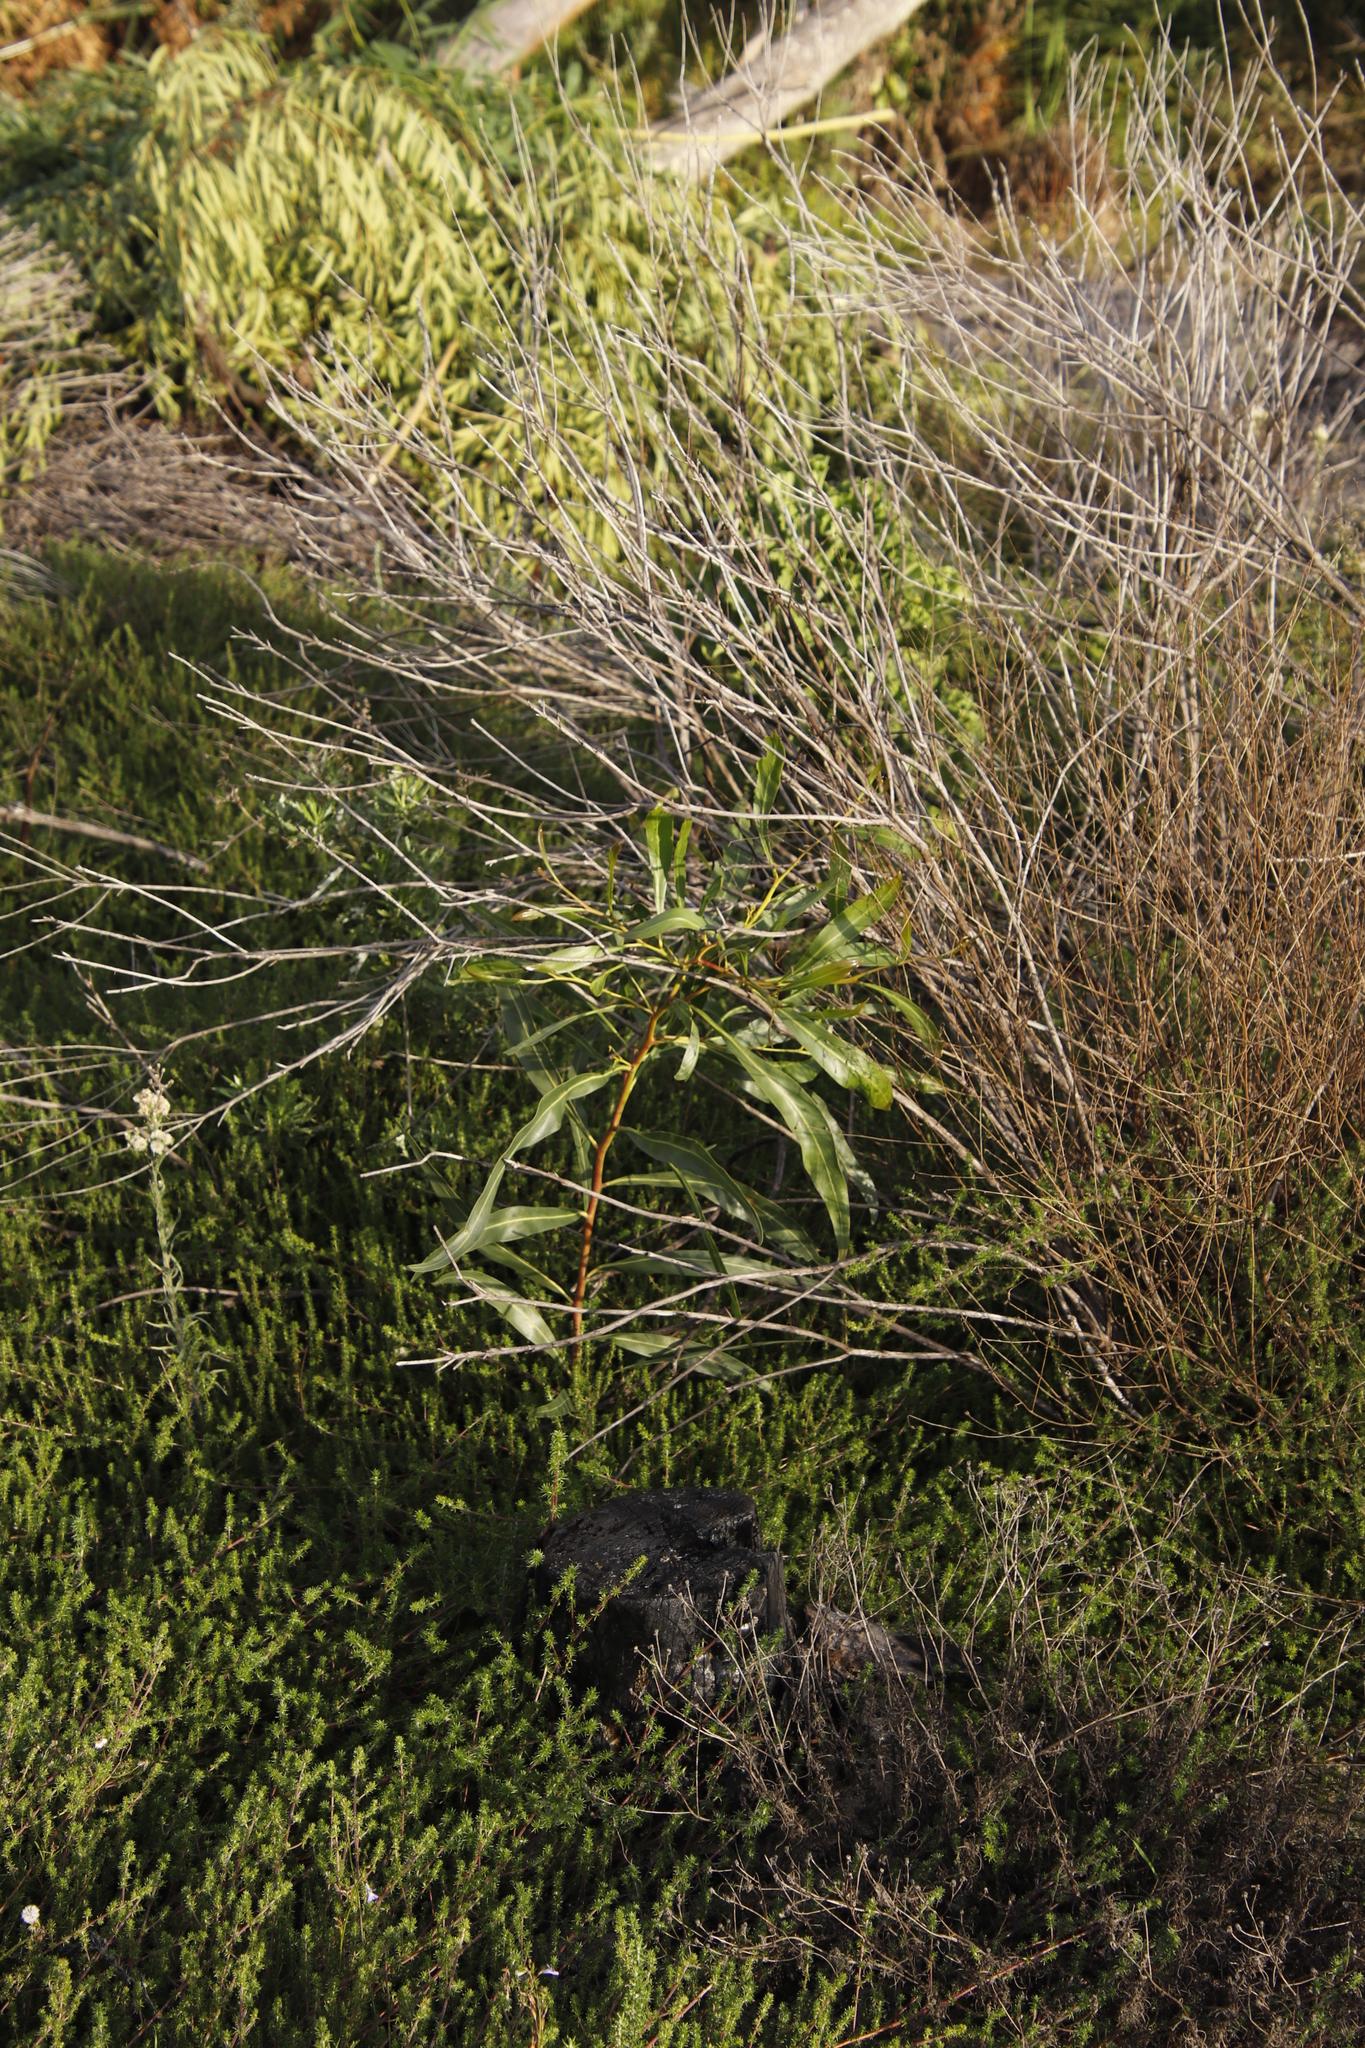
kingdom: Plantae
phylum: Tracheophyta
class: Magnoliopsida
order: Fabales
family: Fabaceae
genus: Acacia
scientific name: Acacia saligna
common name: Orange wattle
